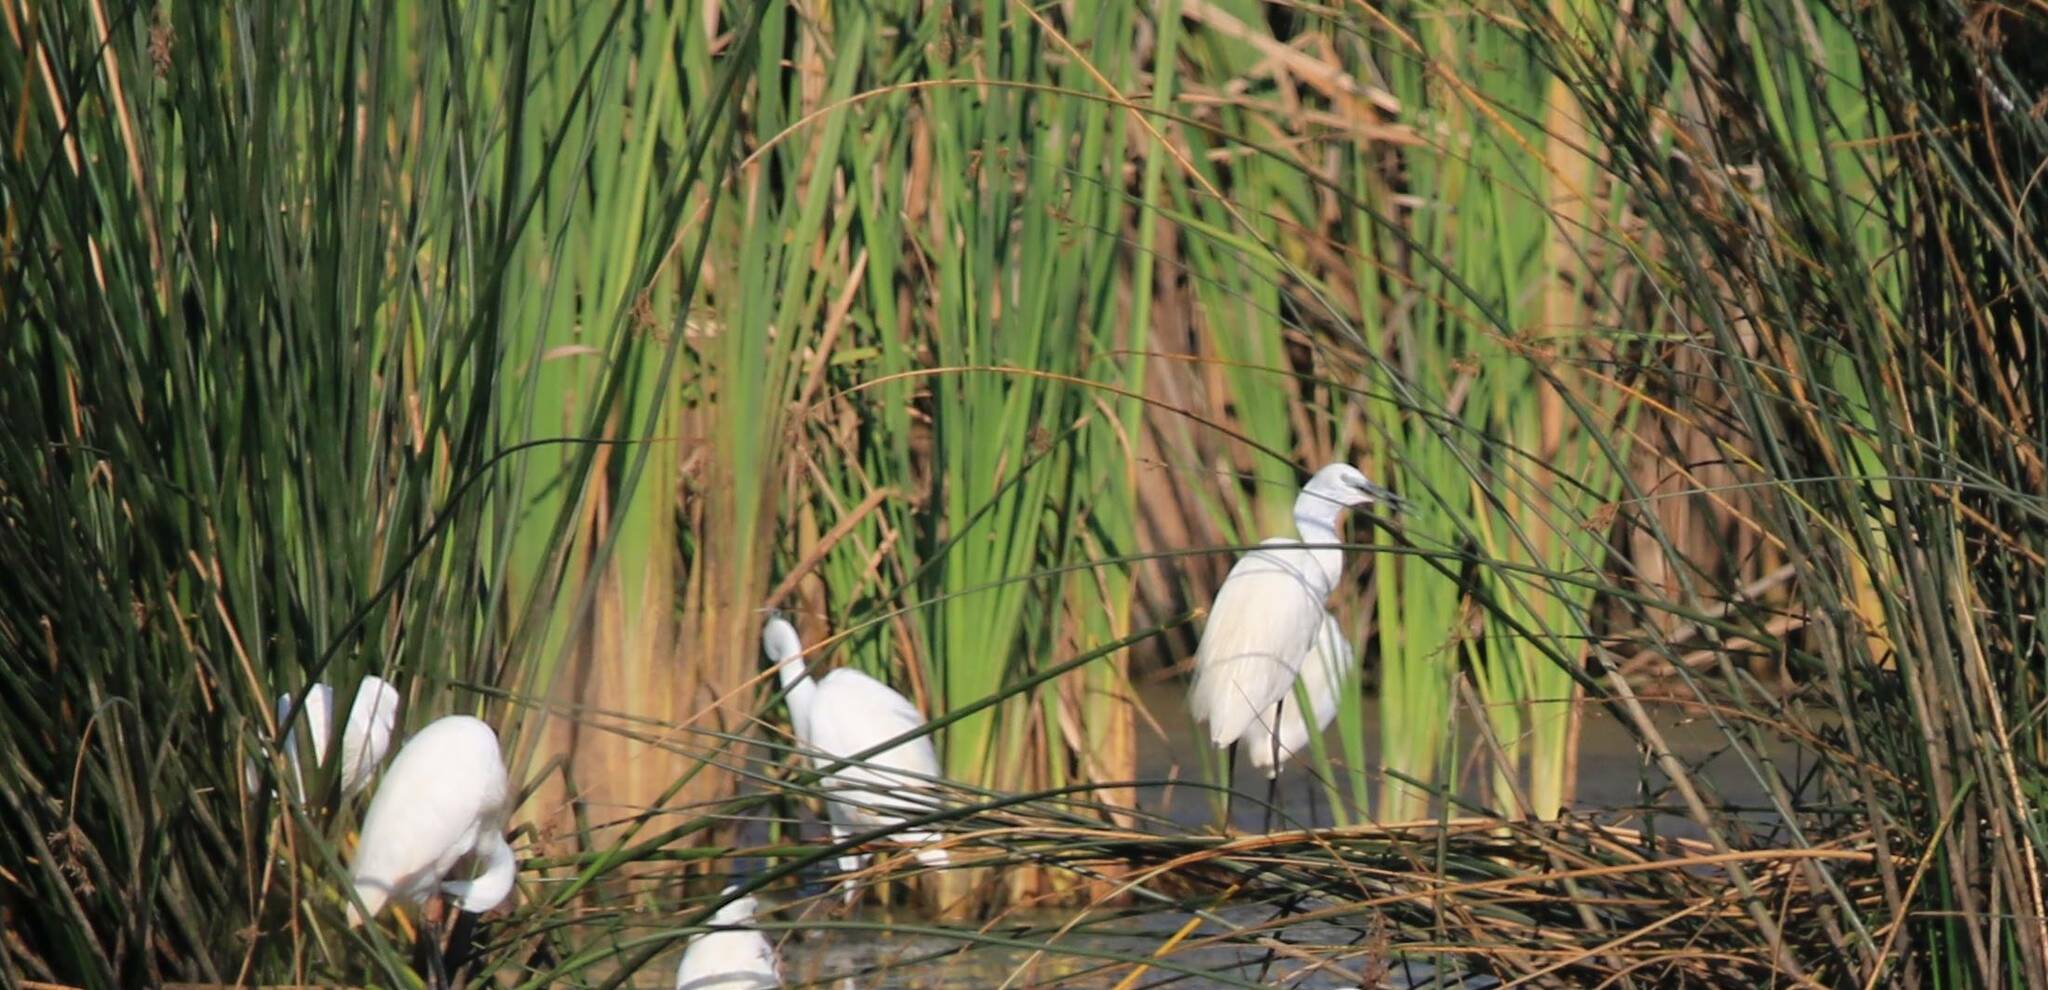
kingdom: Animalia
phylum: Chordata
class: Aves
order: Pelecaniformes
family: Ardeidae
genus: Egretta
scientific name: Egretta garzetta
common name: Little egret
